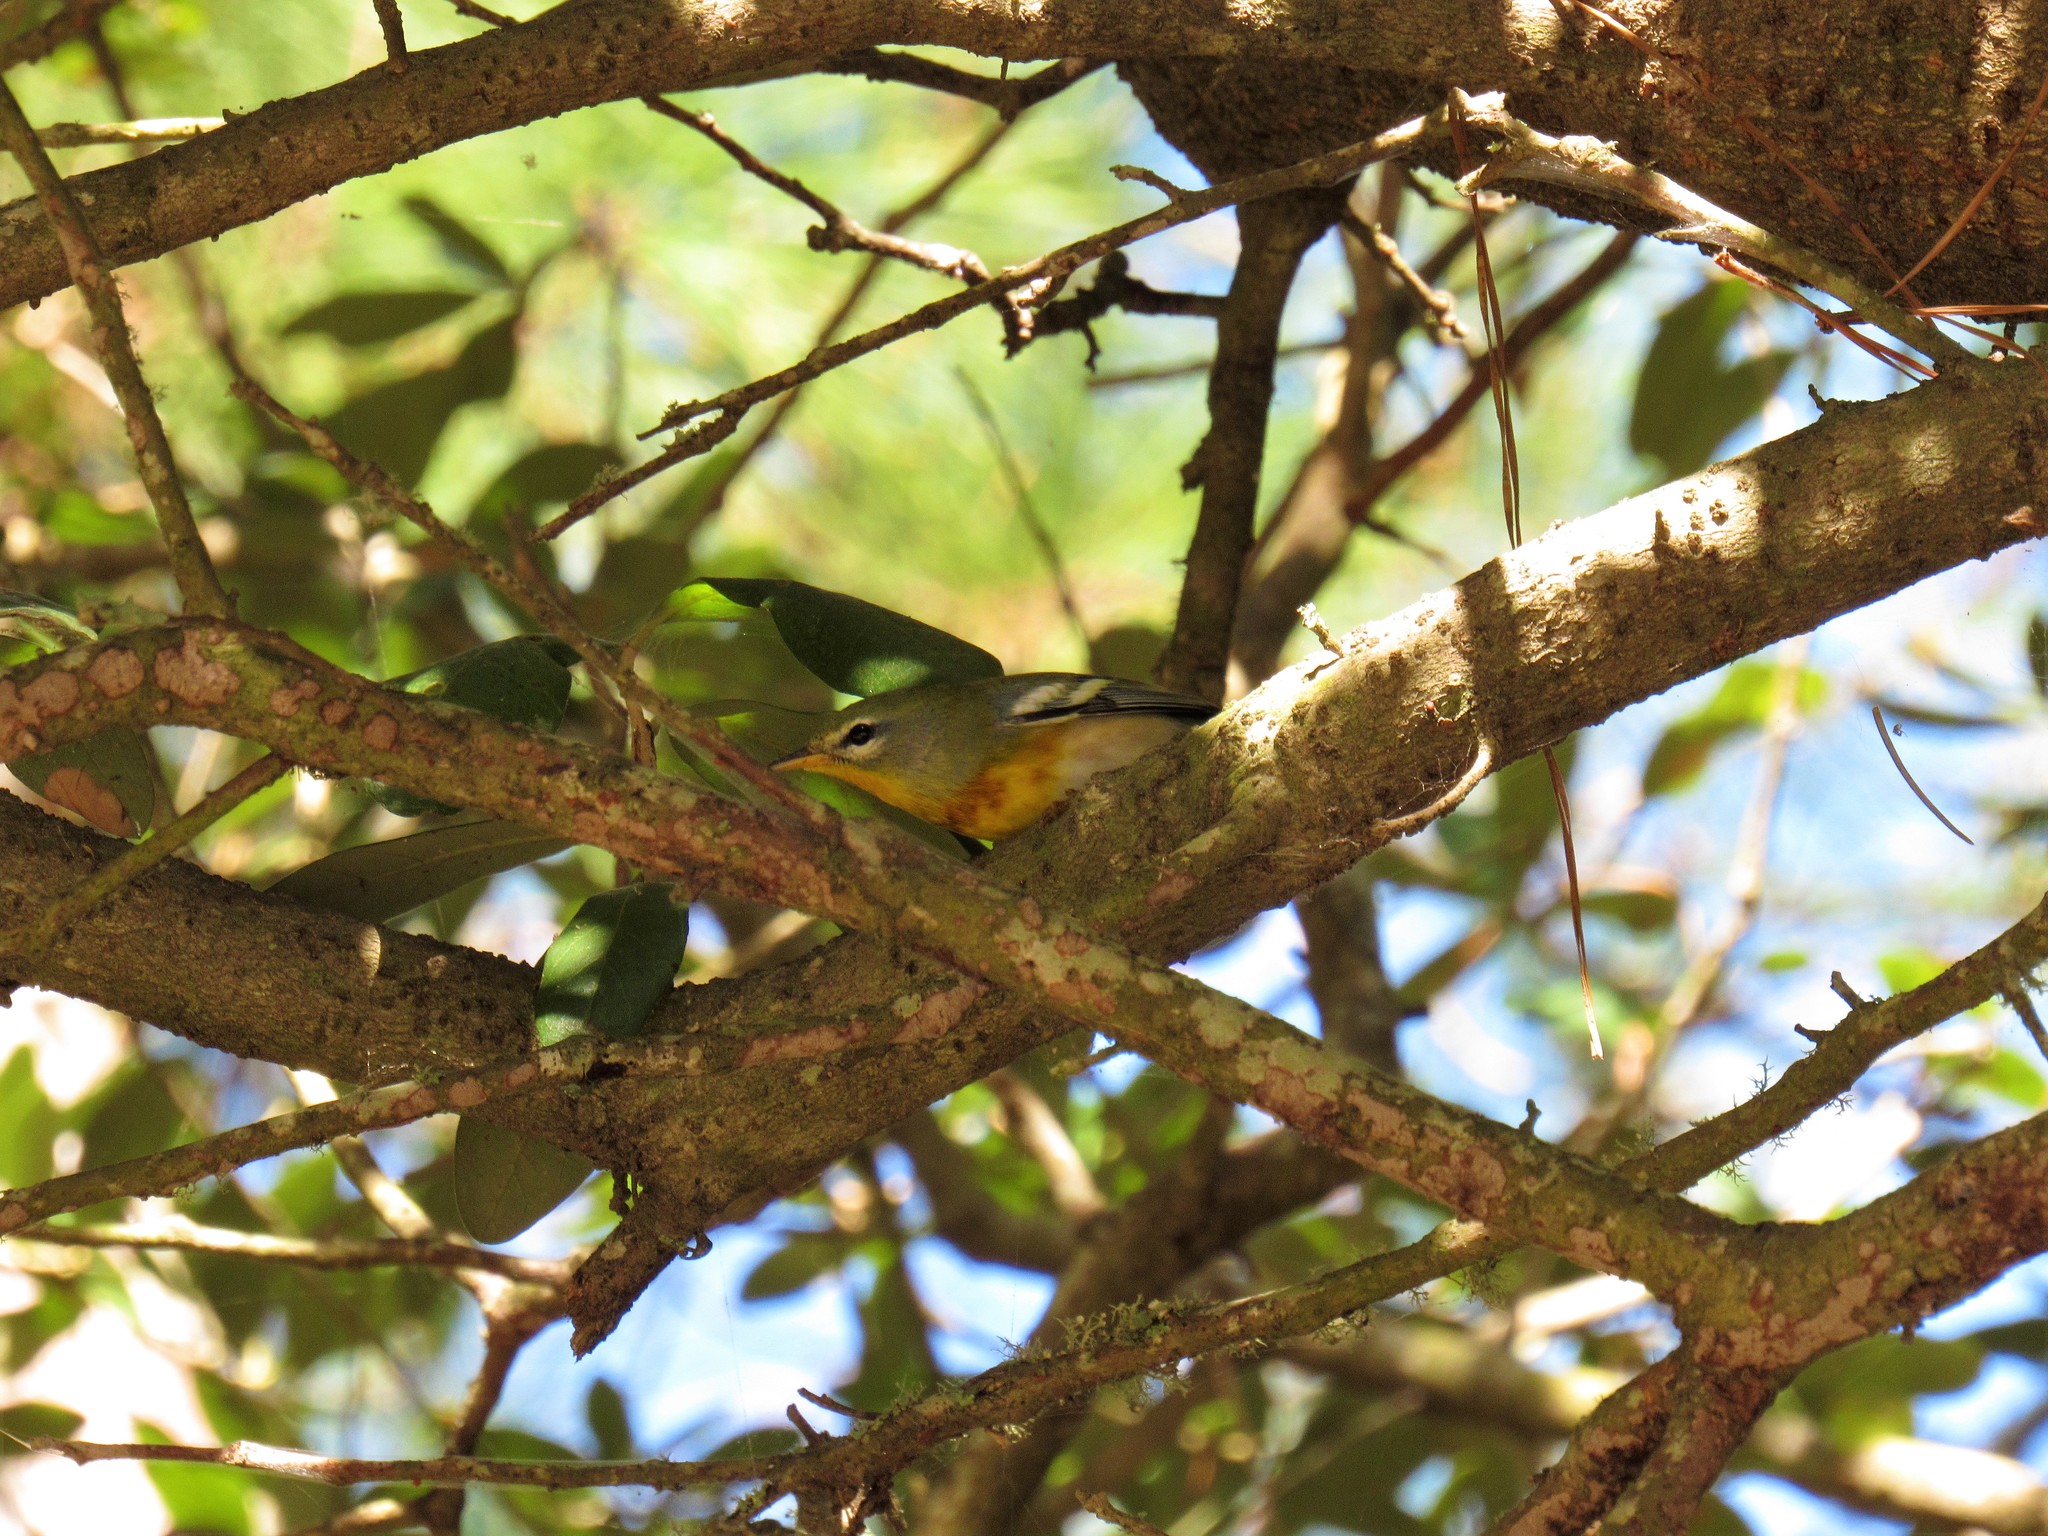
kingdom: Animalia
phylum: Chordata
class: Aves
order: Passeriformes
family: Parulidae
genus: Setophaga
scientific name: Setophaga americana
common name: Northern parula
